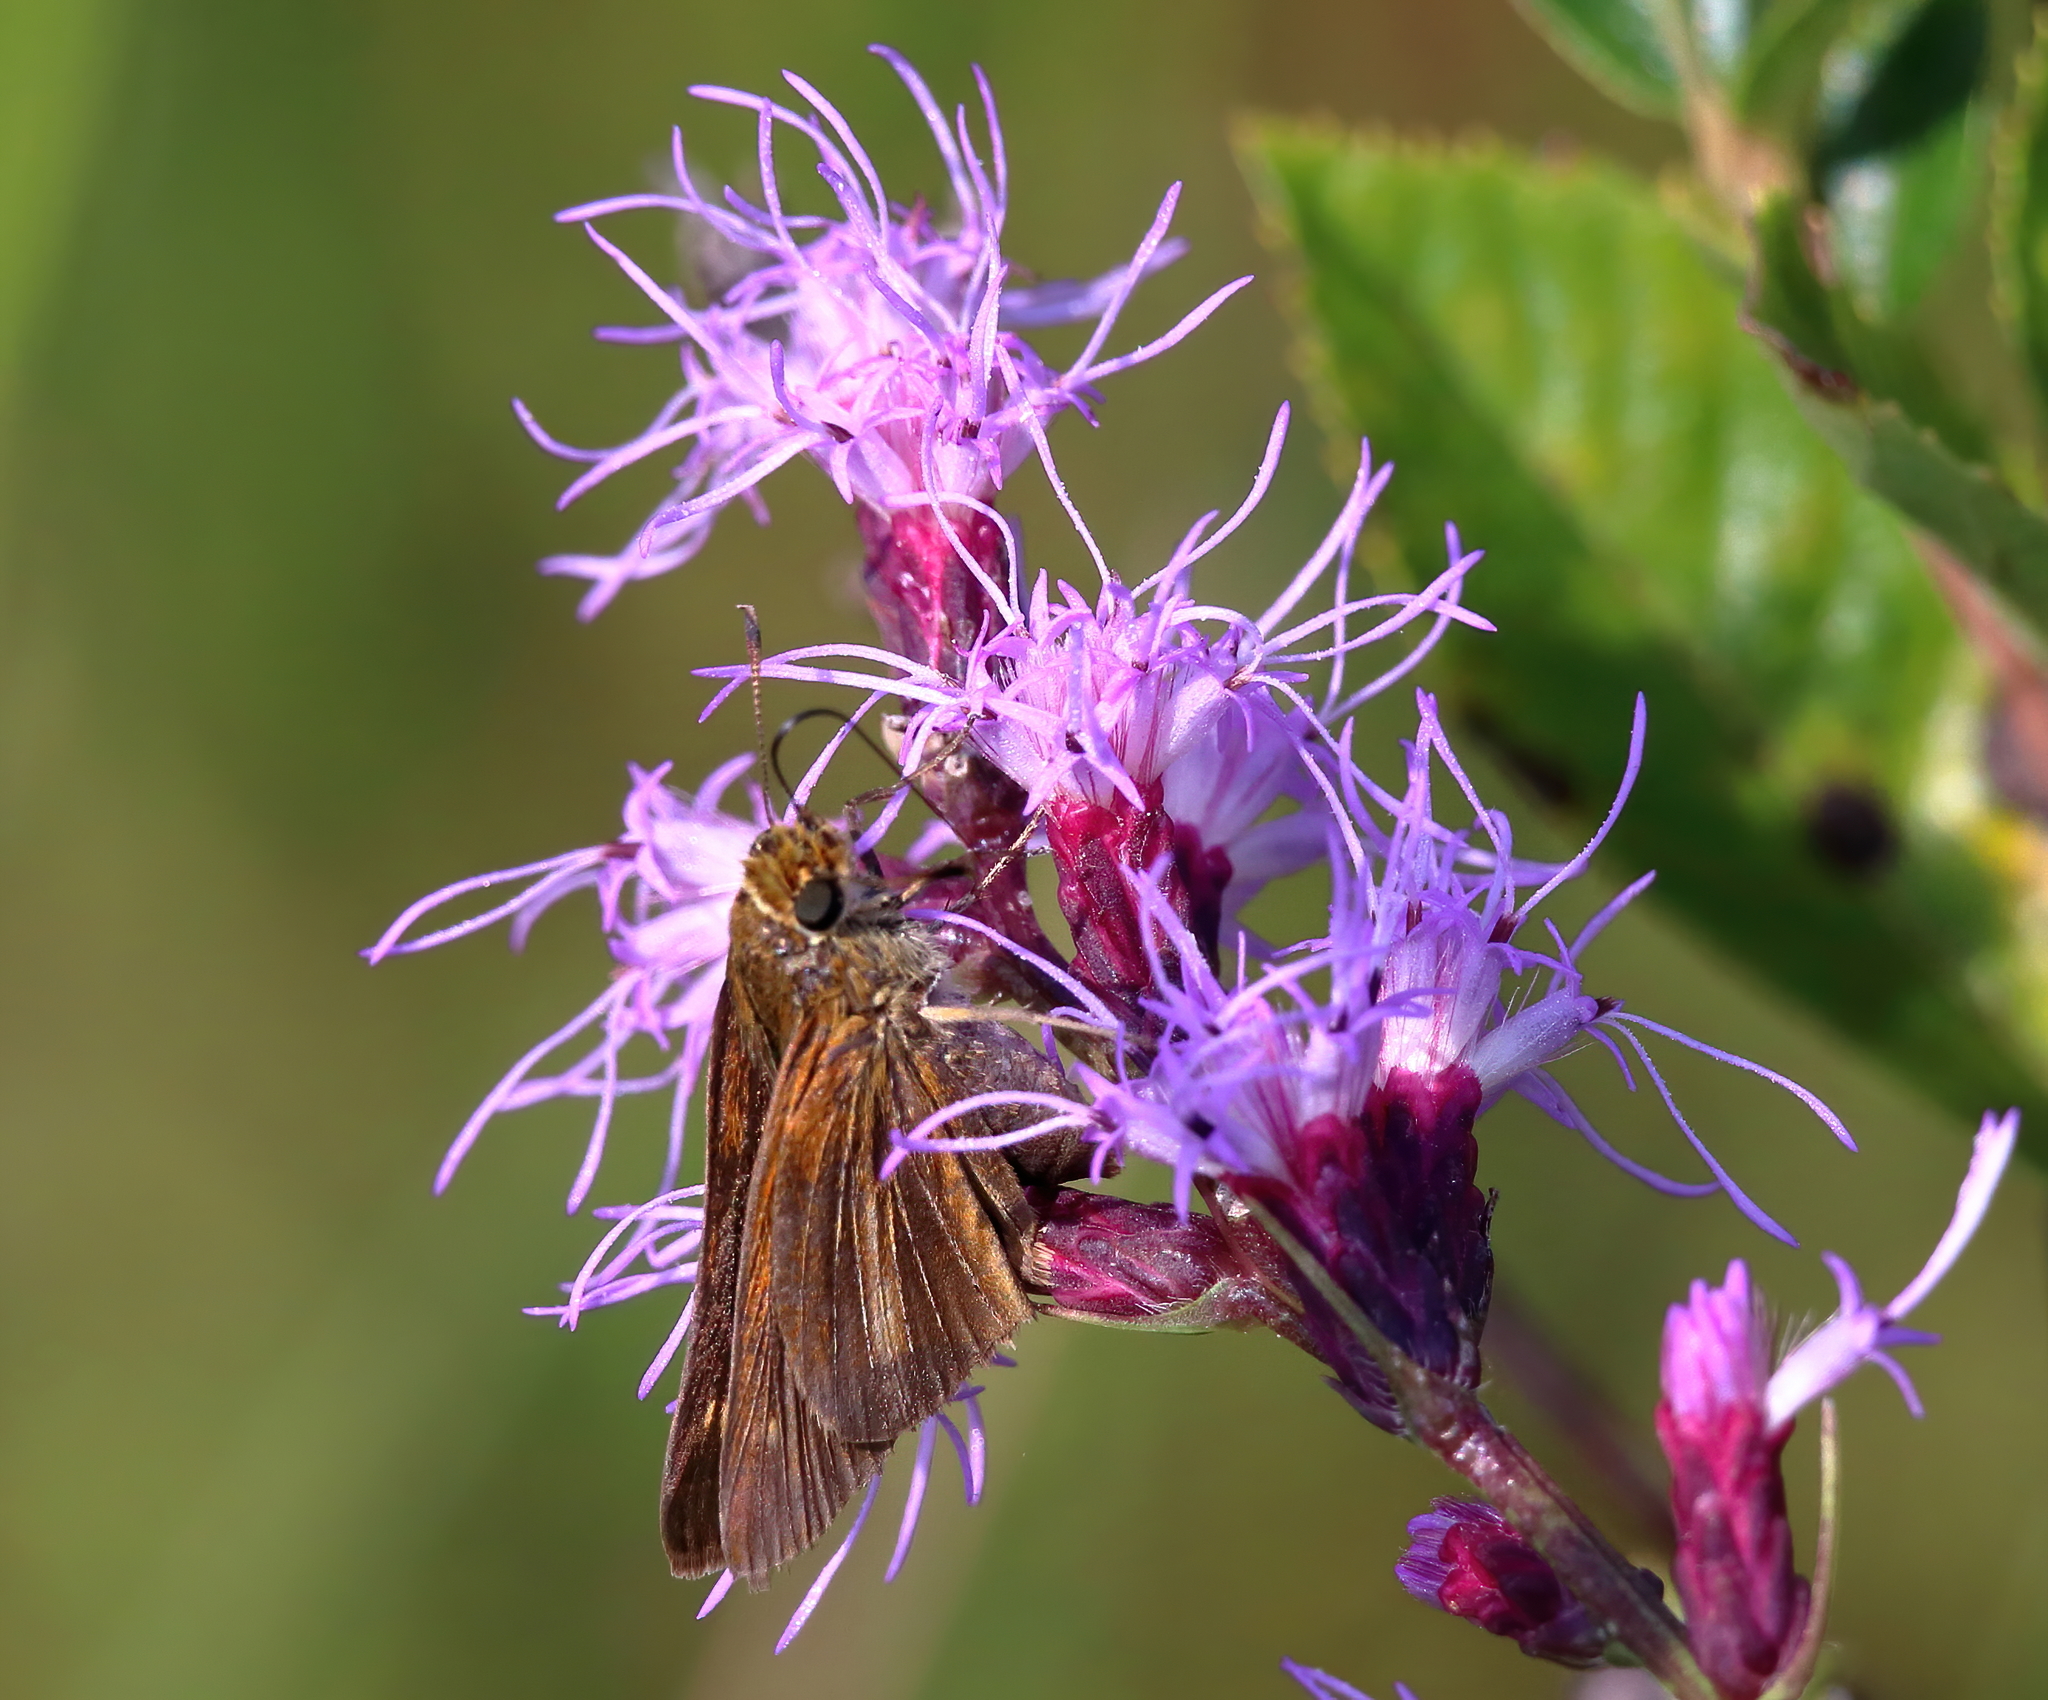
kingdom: Animalia
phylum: Arthropoda
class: Insecta
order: Lepidoptera
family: Hesperiidae
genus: Panoquina
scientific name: Panoquina ocola
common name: Ocola skipper
